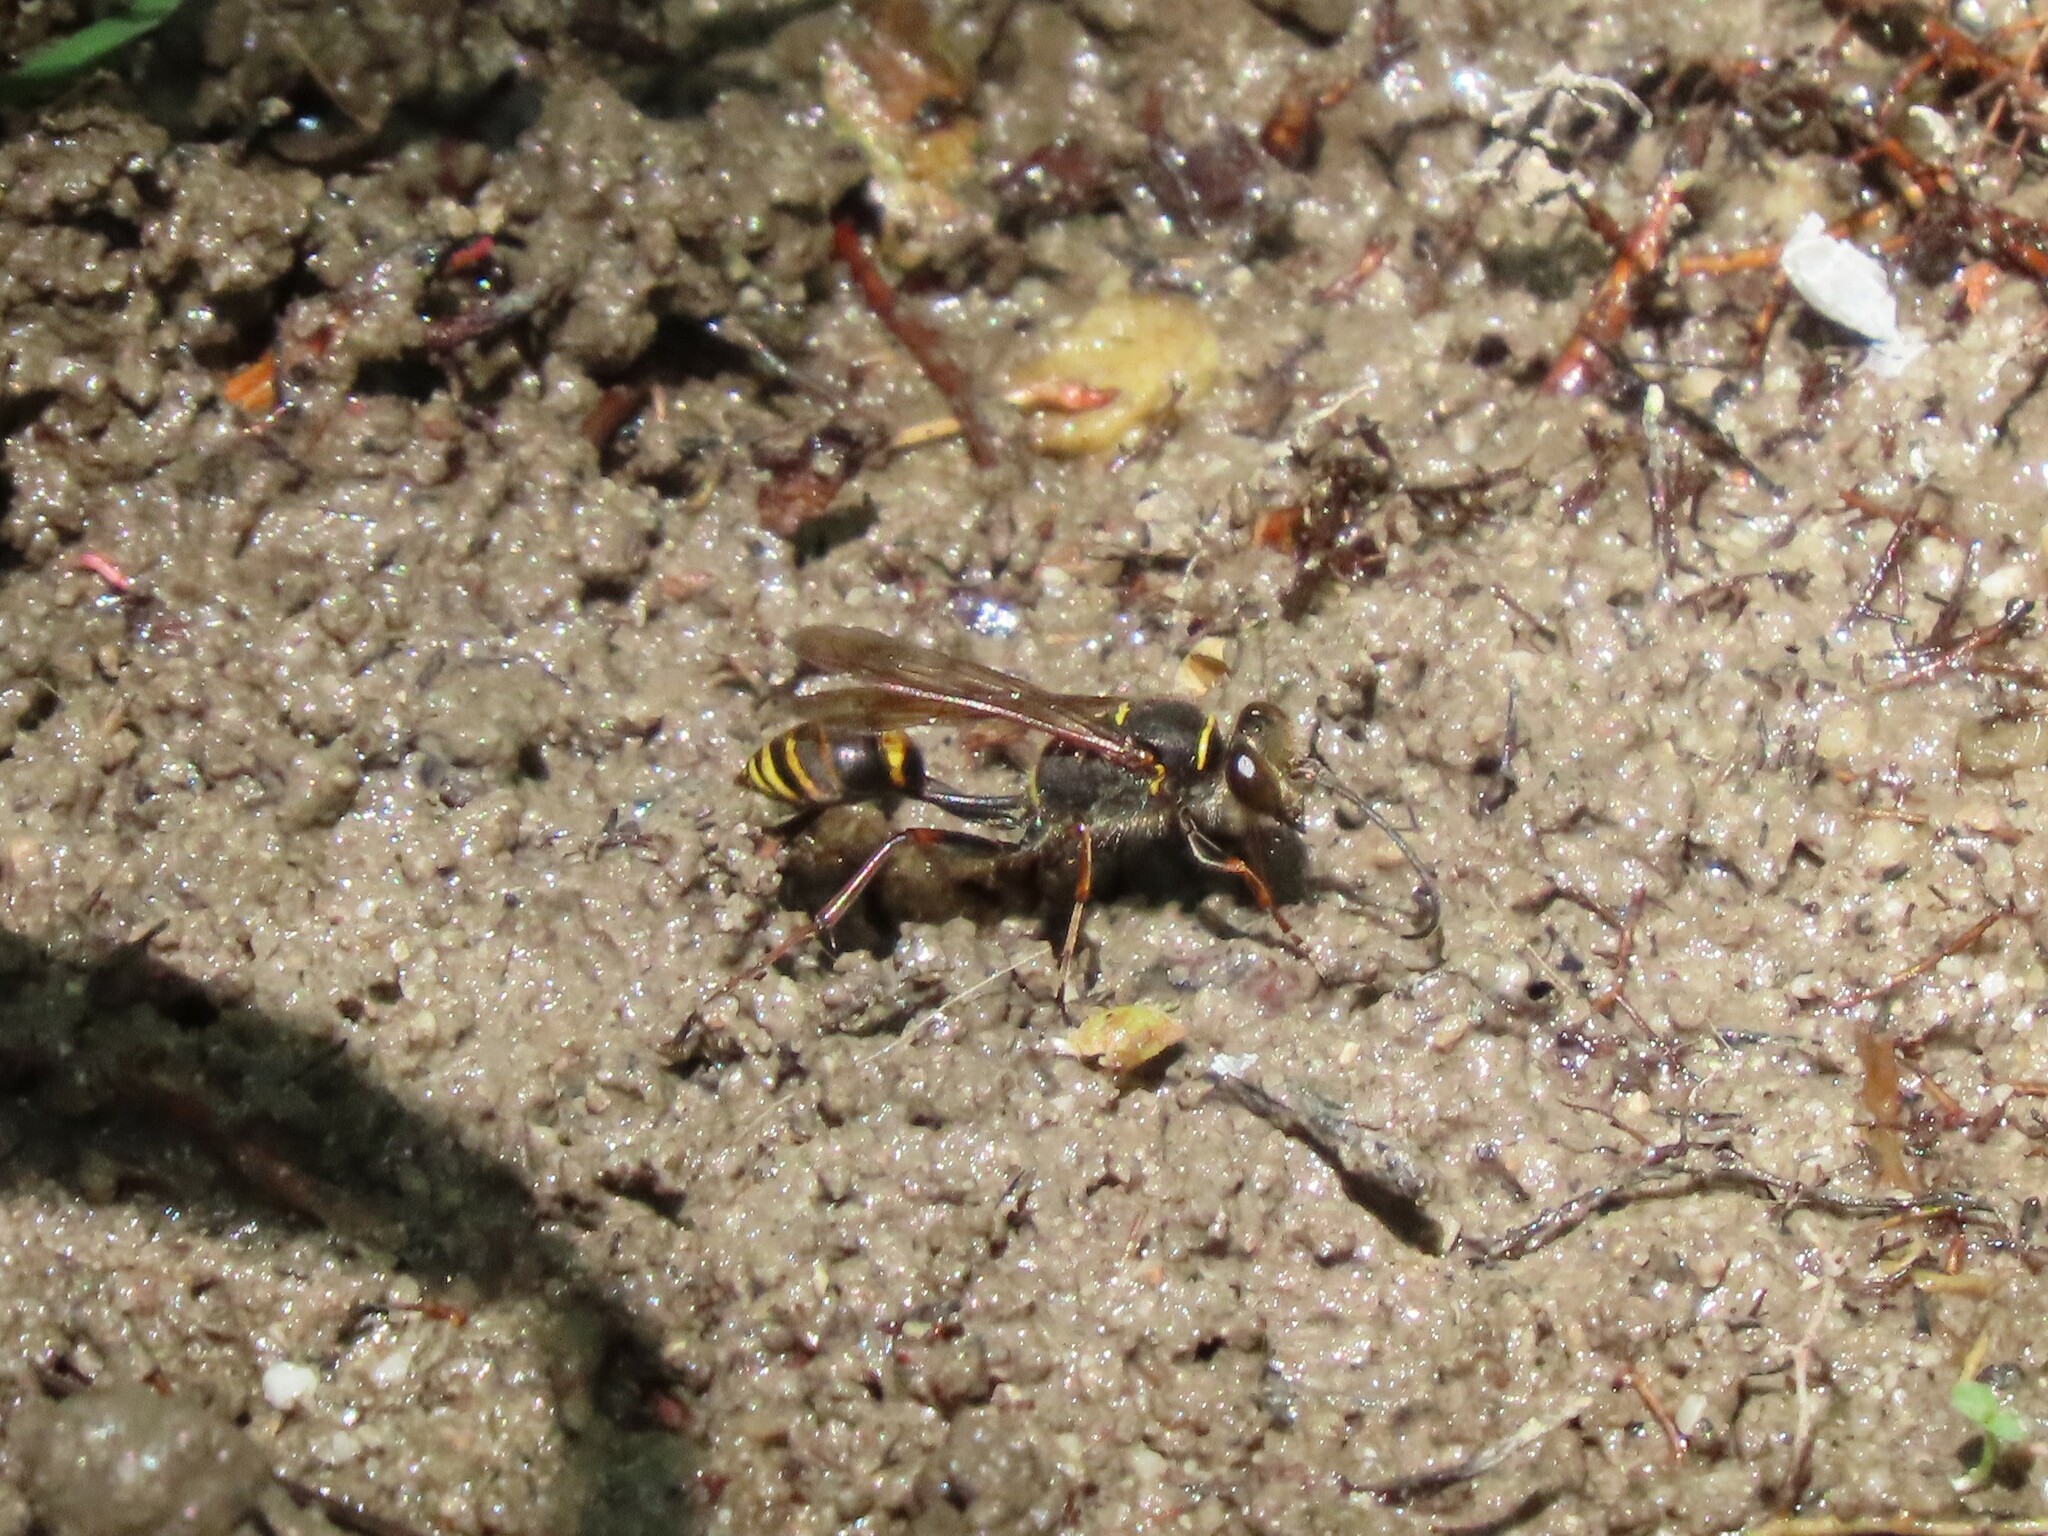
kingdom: Animalia
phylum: Arthropoda
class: Insecta
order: Hymenoptera
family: Sphecidae
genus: Sceliphron
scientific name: Sceliphron curvatum
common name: Pèlopèe
